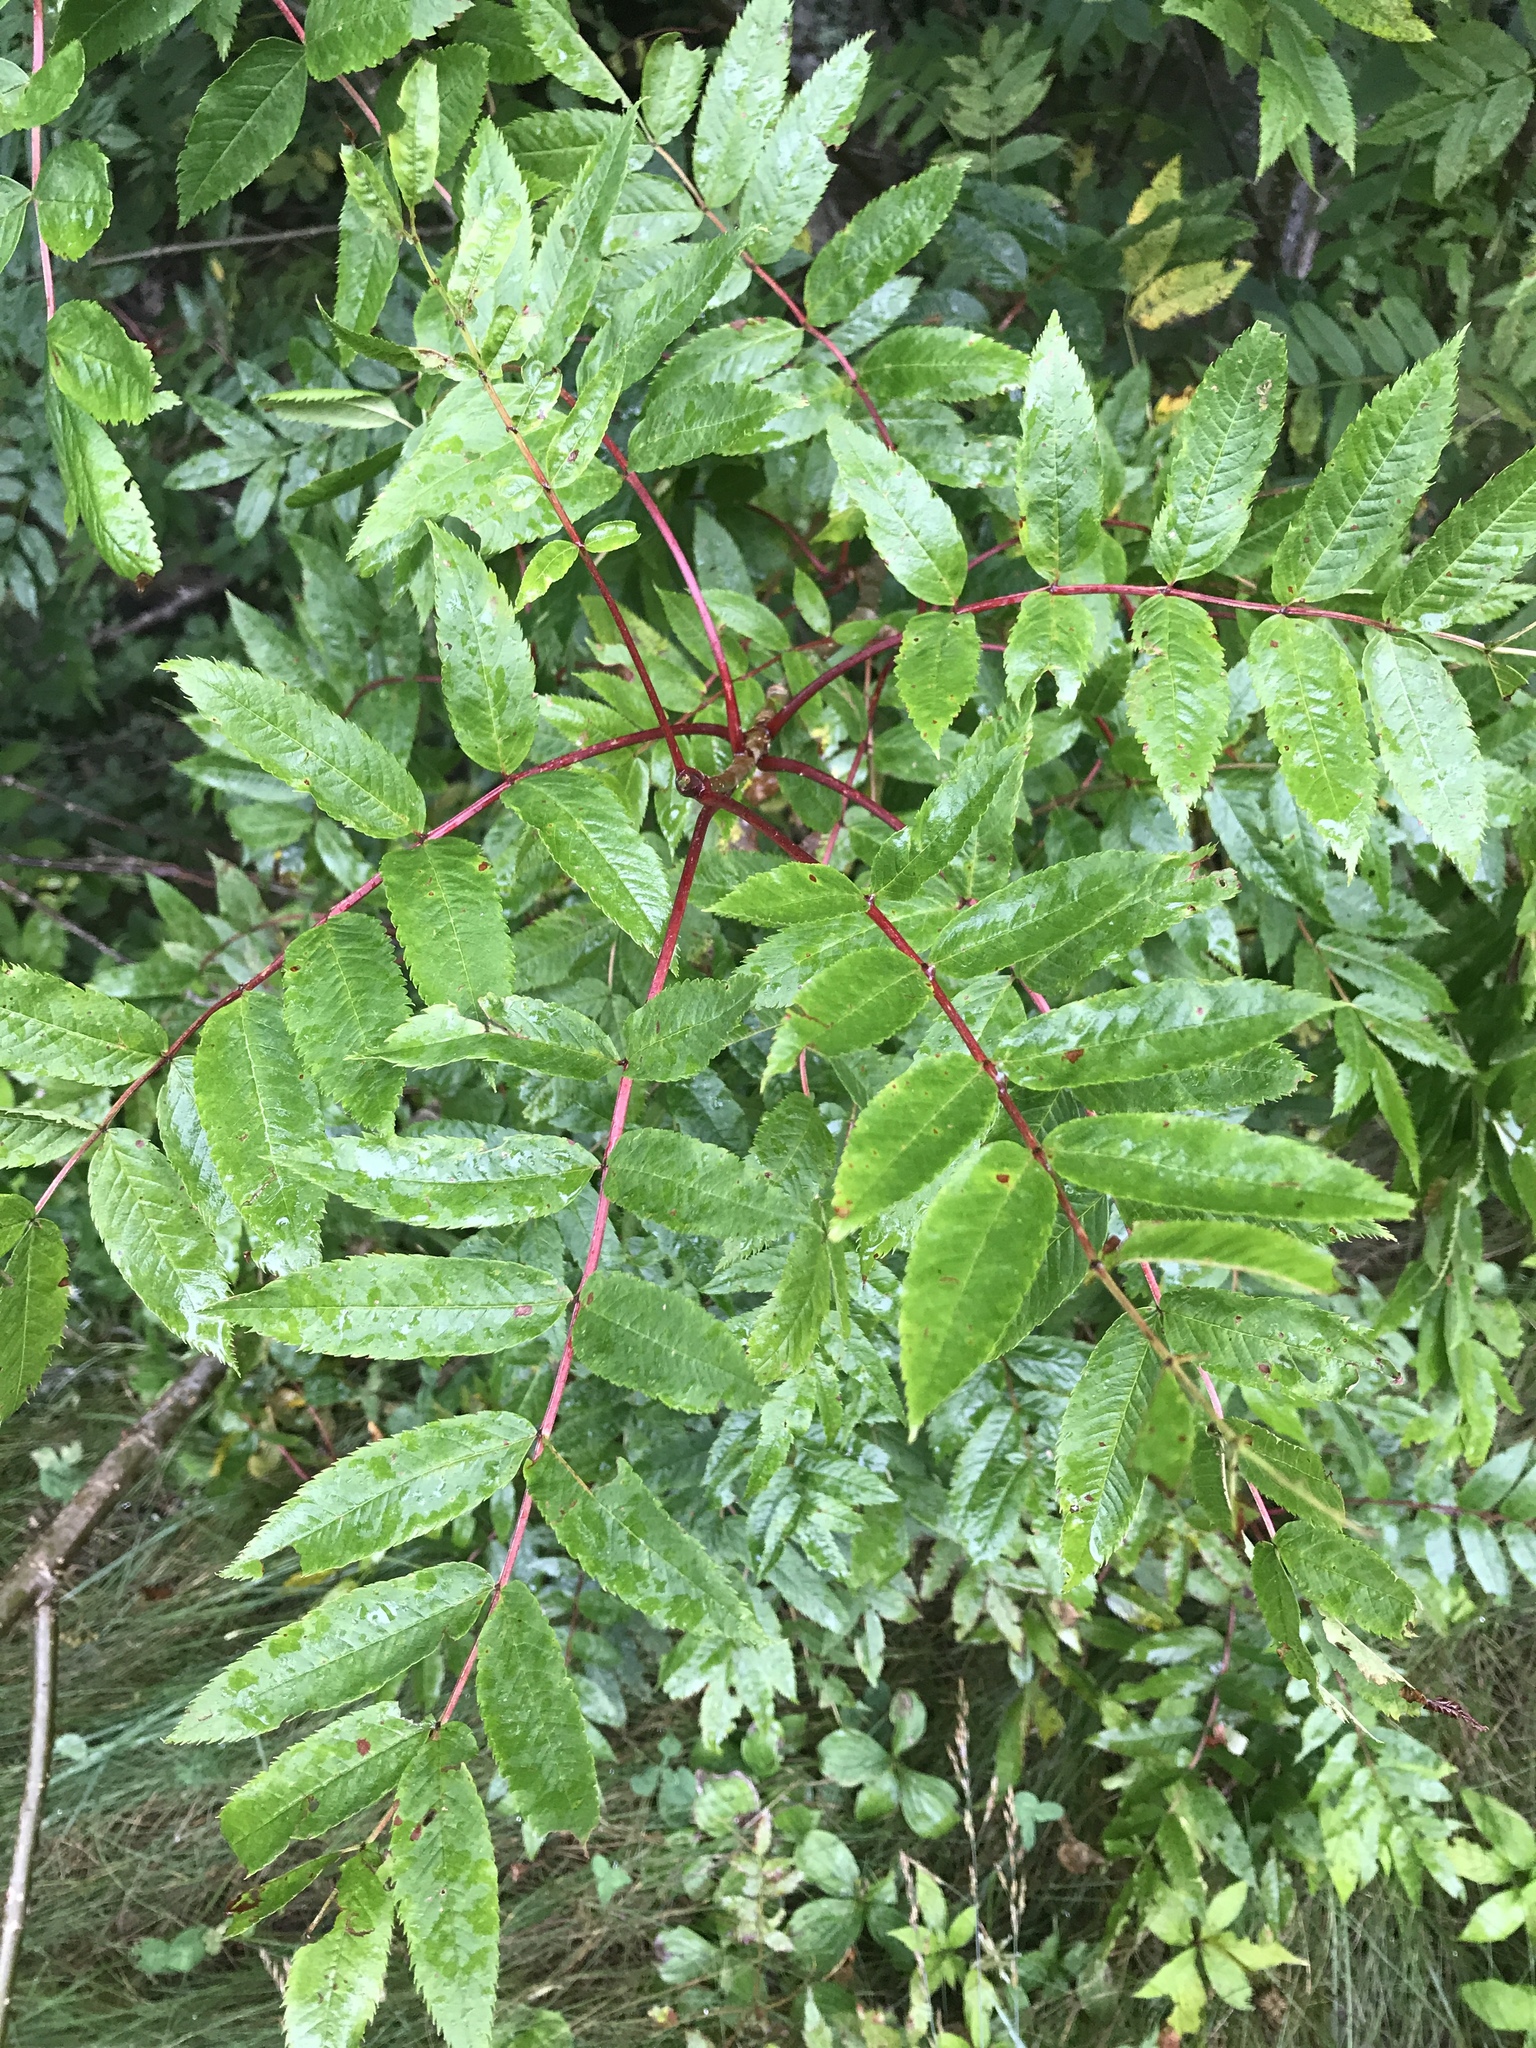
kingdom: Plantae
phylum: Tracheophyta
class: Magnoliopsida
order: Rosales
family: Rosaceae
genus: Sorbus
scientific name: Sorbus americana
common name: American mountain-ash
